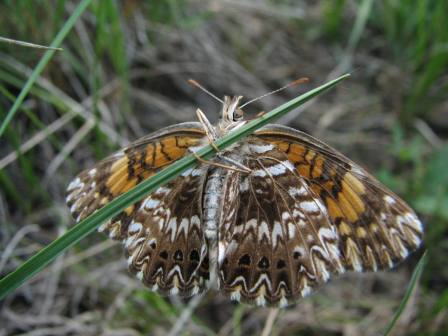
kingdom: Animalia
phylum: Arthropoda
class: Insecta
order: Lepidoptera
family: Nymphalidae
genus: Chlosyne
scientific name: Chlosyne gorgone
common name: Gorgone checkerspot
